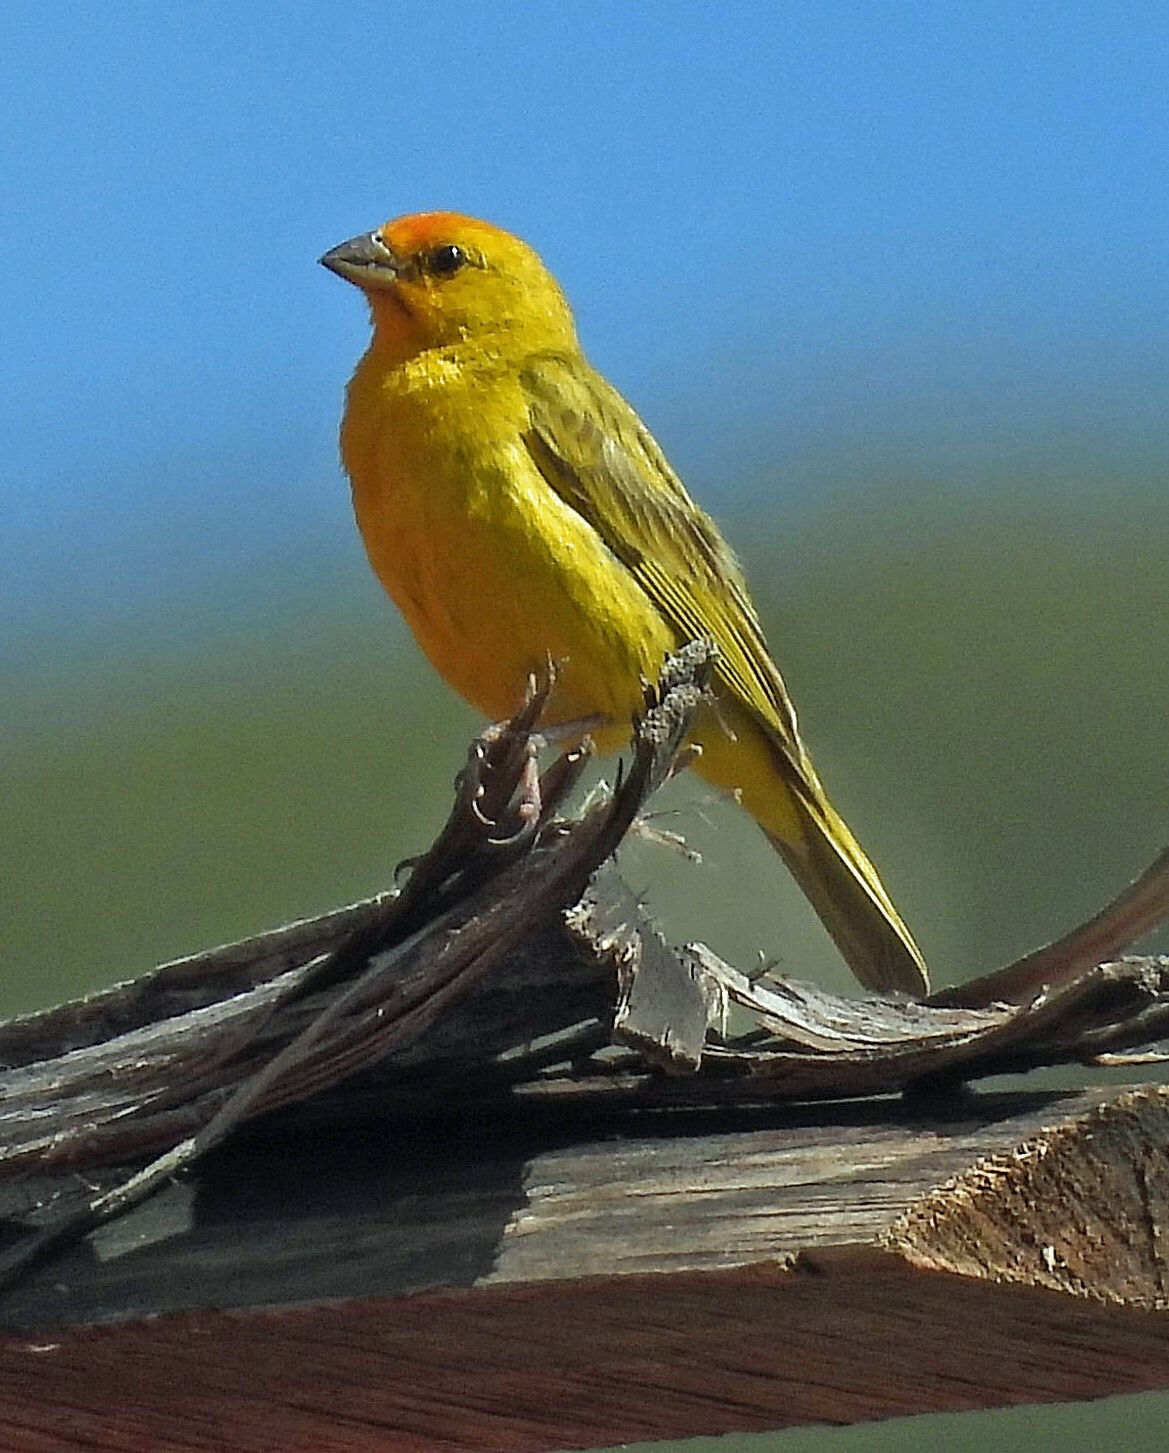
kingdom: Animalia
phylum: Chordata
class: Aves
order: Passeriformes
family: Thraupidae
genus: Sicalis
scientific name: Sicalis flaveola
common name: Saffron finch
